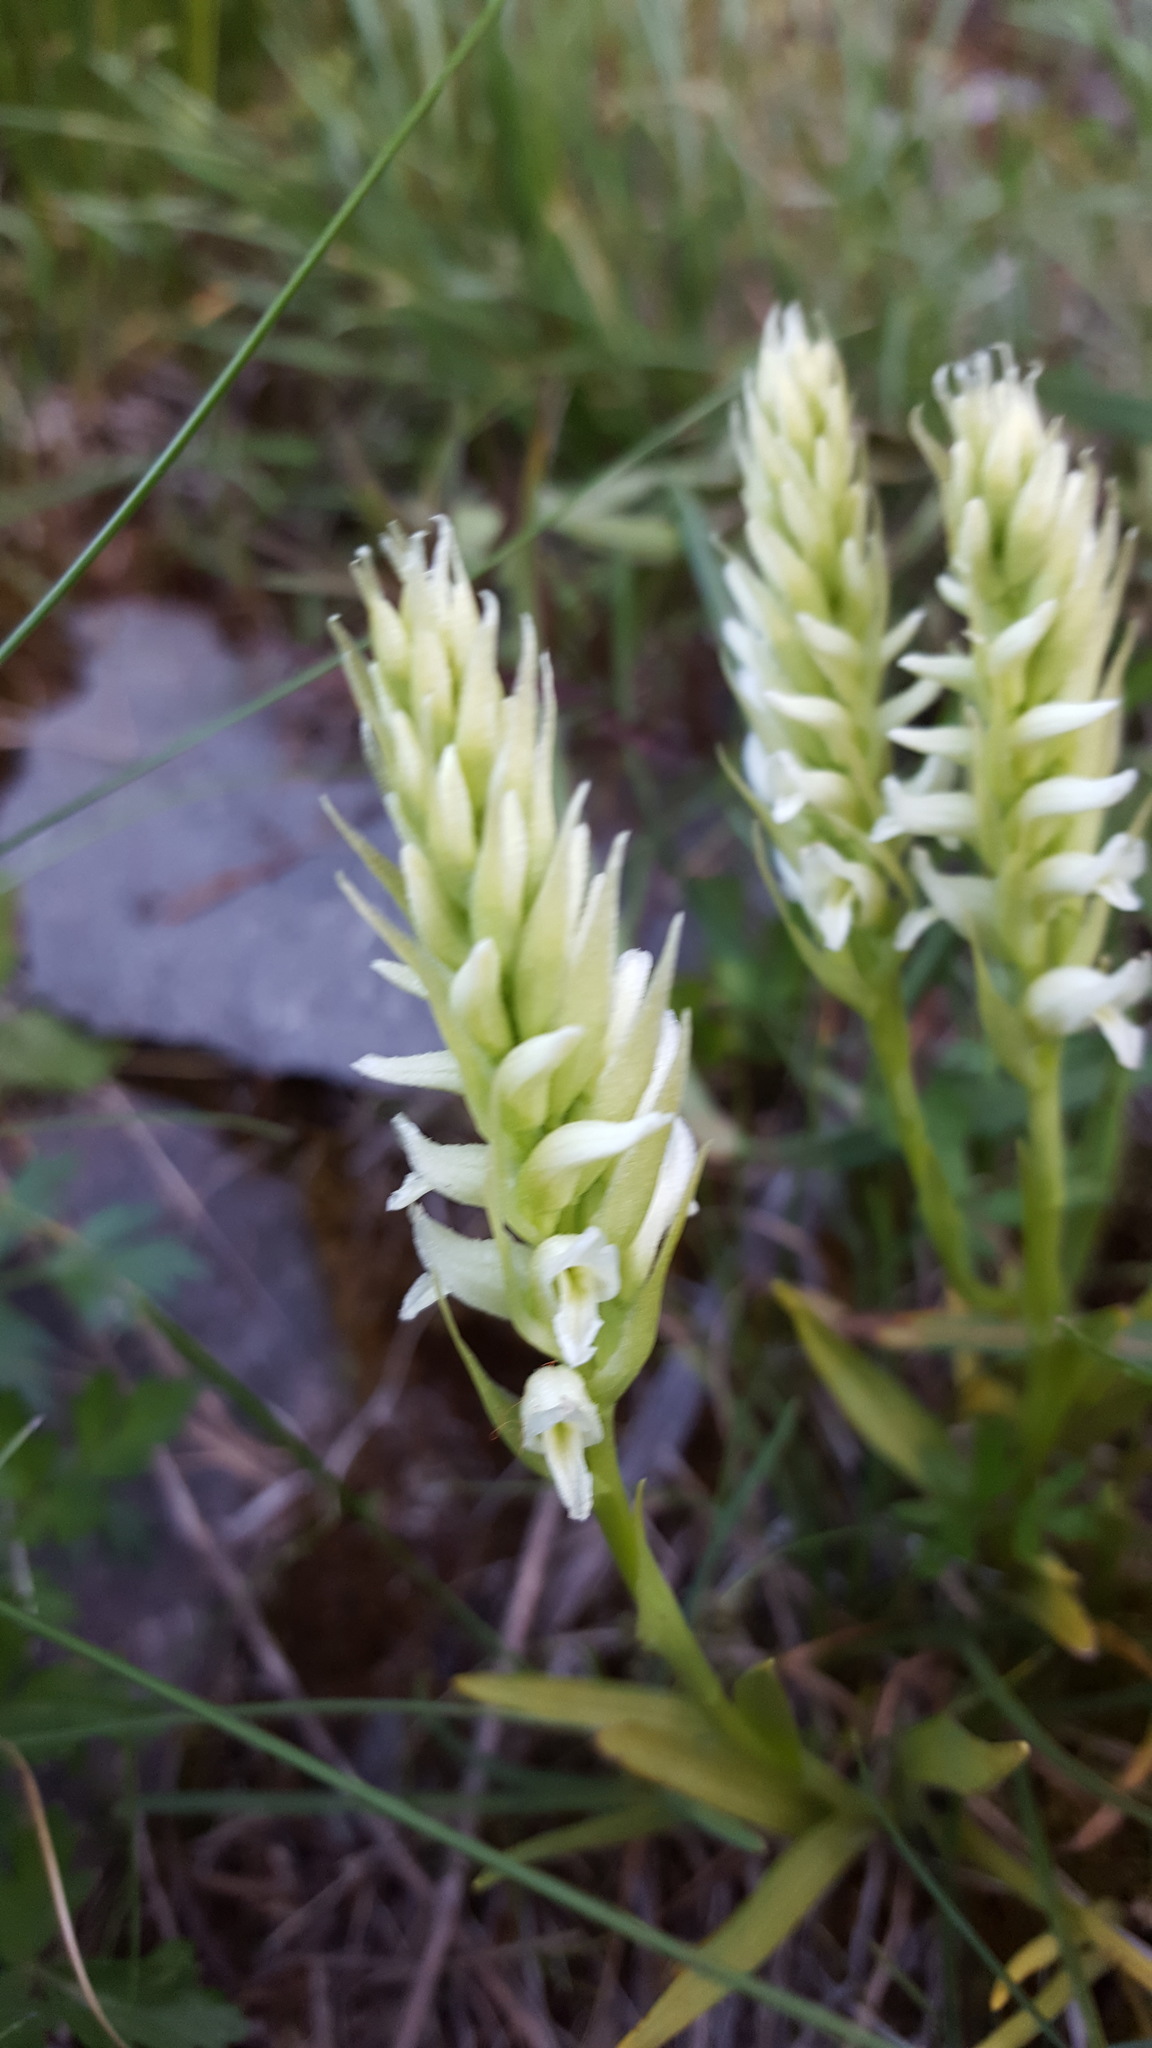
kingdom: Plantae
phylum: Tracheophyta
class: Liliopsida
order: Asparagales
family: Orchidaceae
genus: Spiranthes
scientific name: Spiranthes romanzoffiana
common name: Irish lady's-tresses
